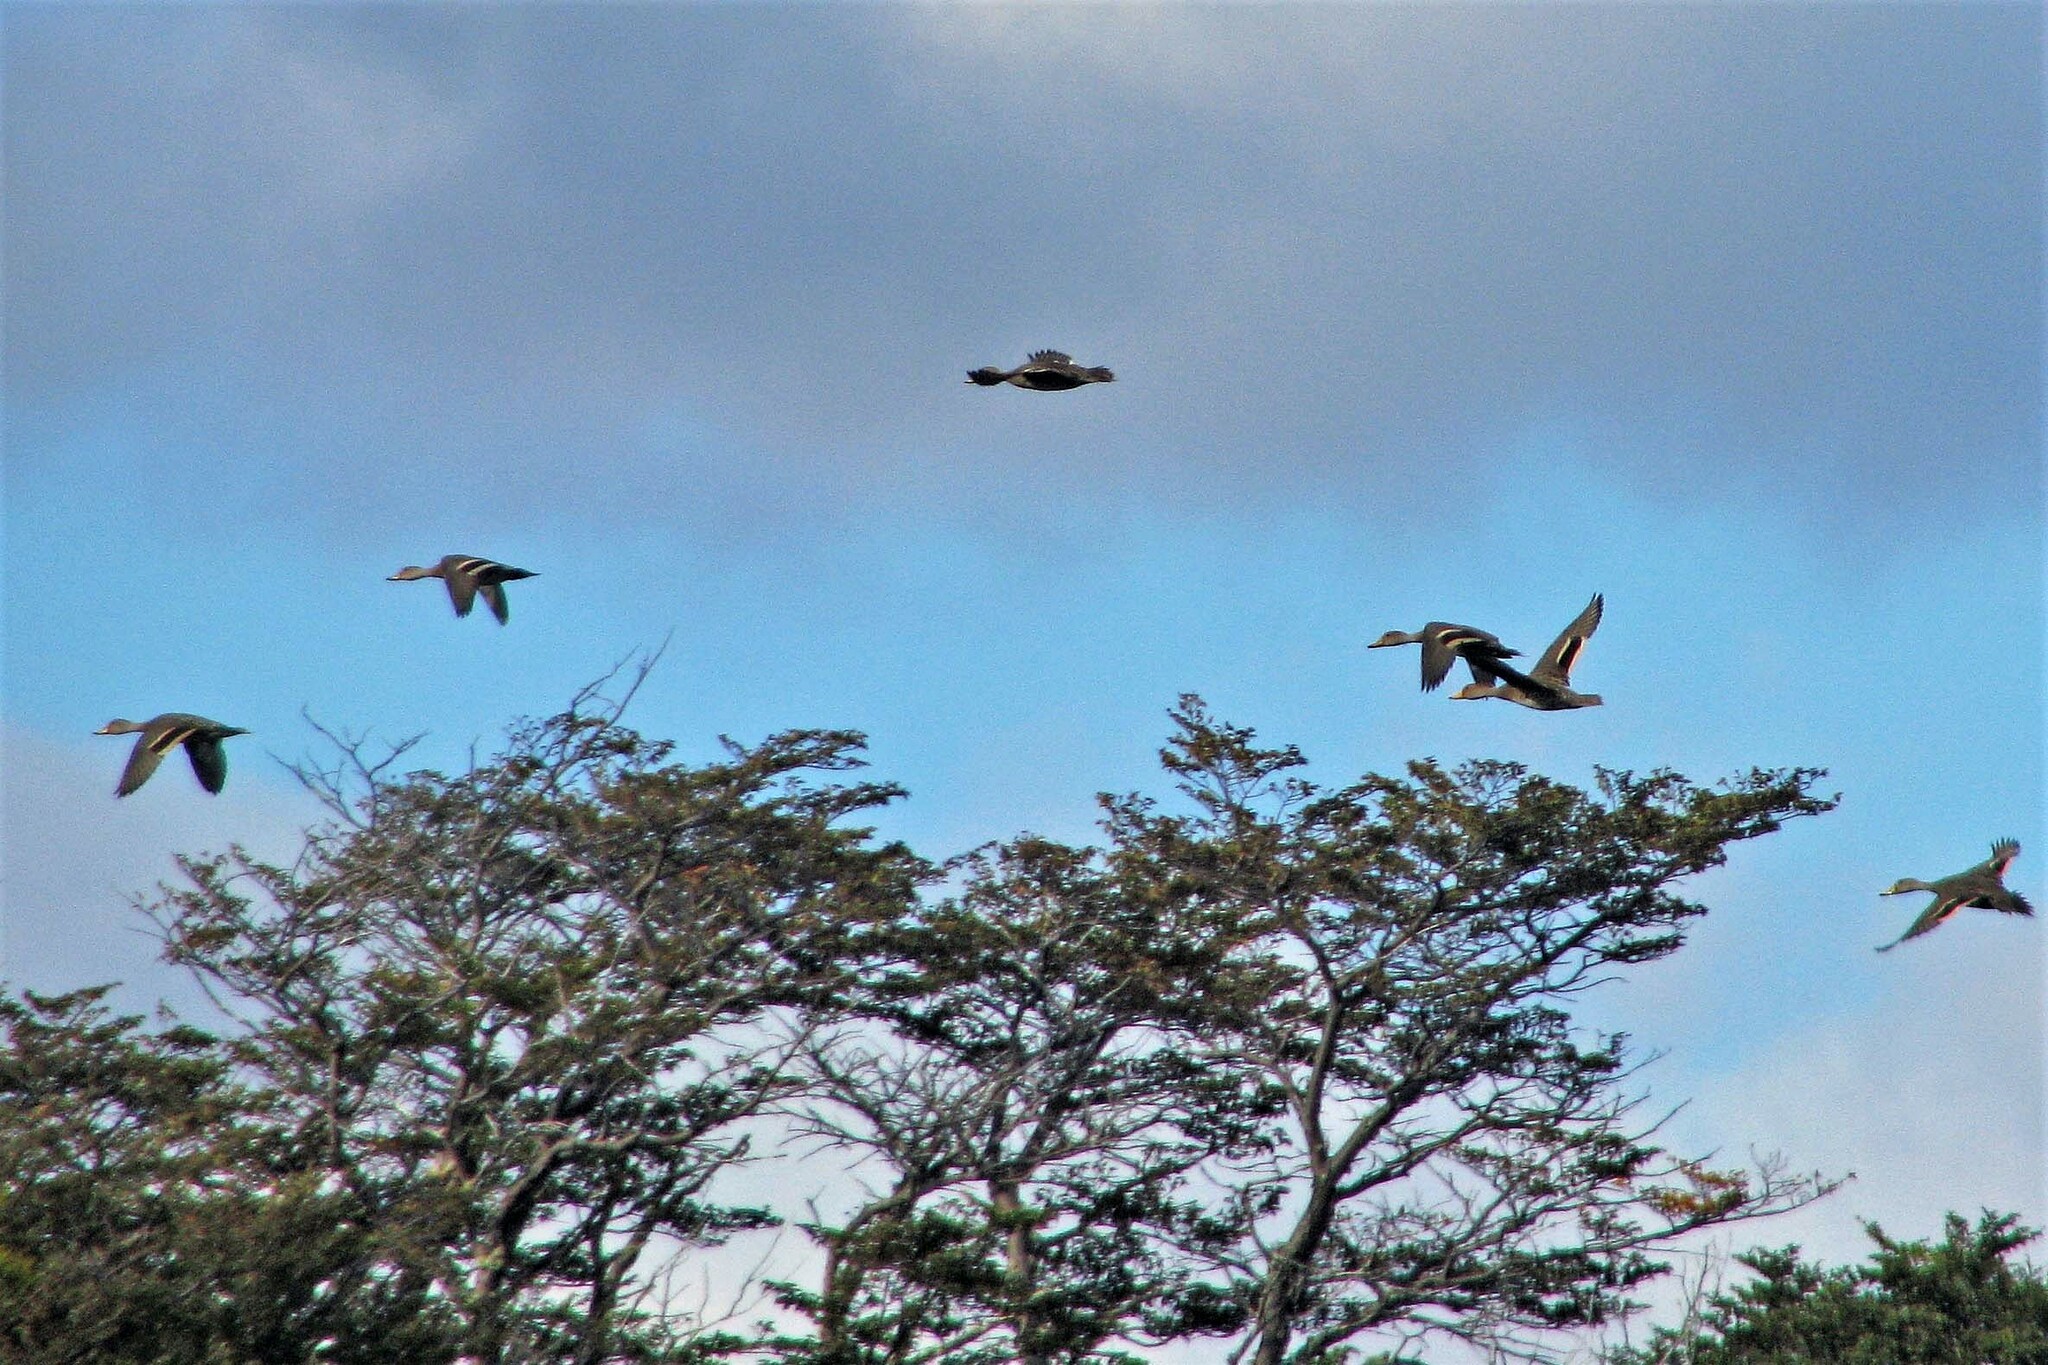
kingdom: Animalia
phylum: Chordata
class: Aves
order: Anseriformes
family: Anatidae
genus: Anas
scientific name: Anas georgica
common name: Yellow-billed pintail
